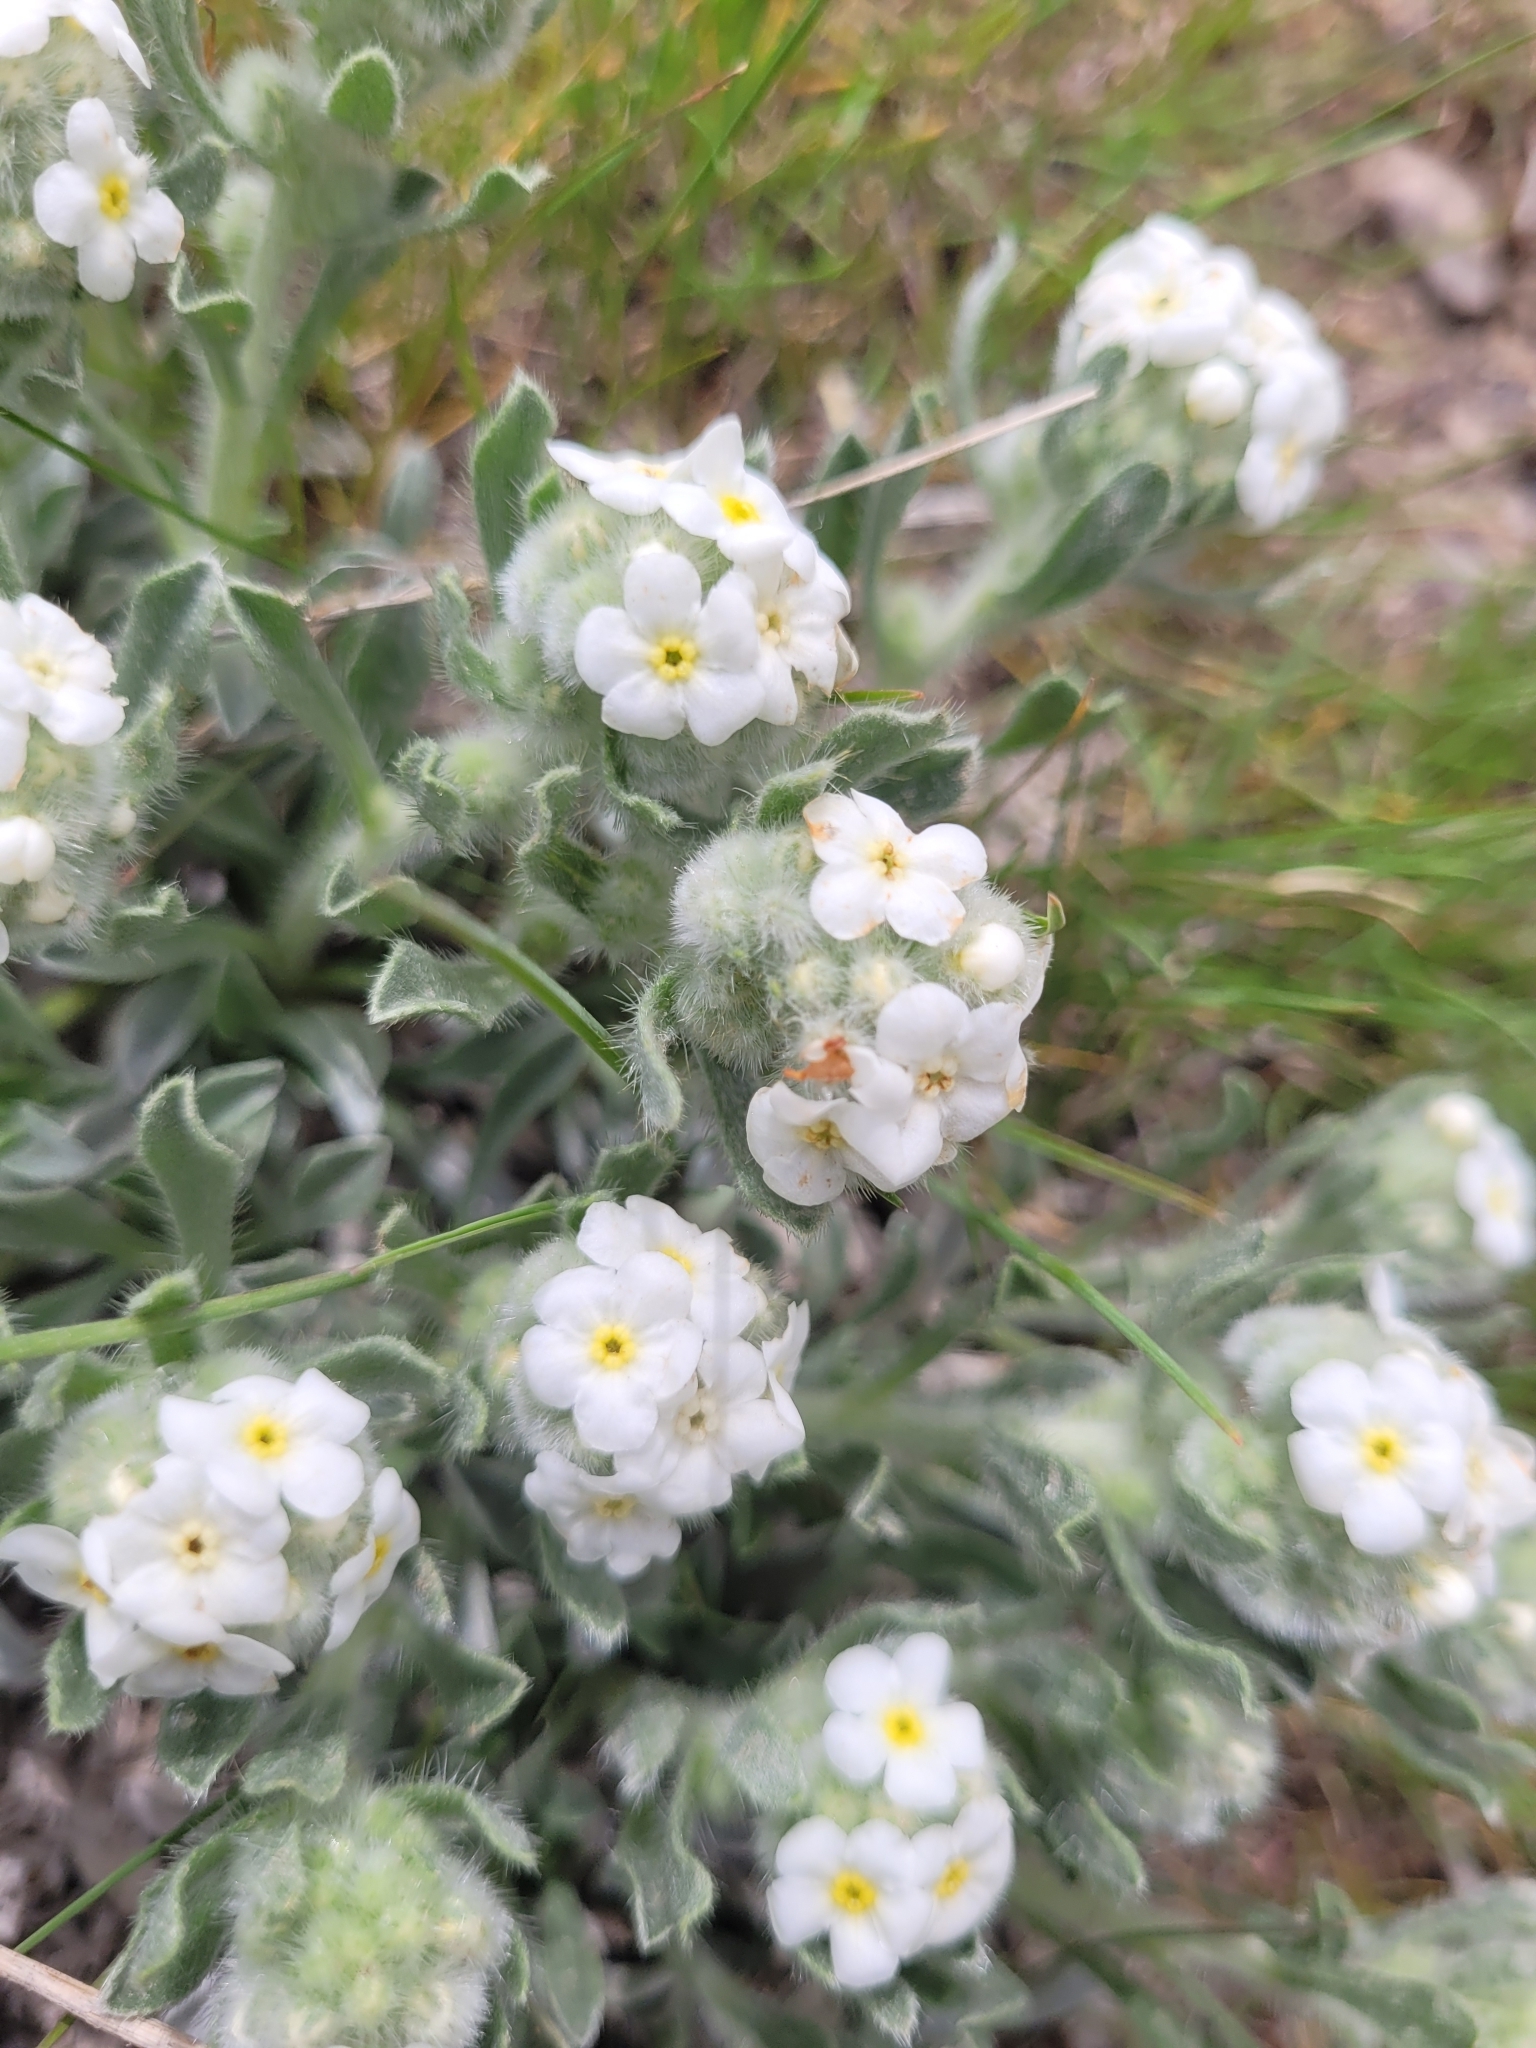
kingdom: Plantae
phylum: Tracheophyta
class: Magnoliopsida
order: Boraginales
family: Boraginaceae
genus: Oreocarya
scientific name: Oreocarya humilis
